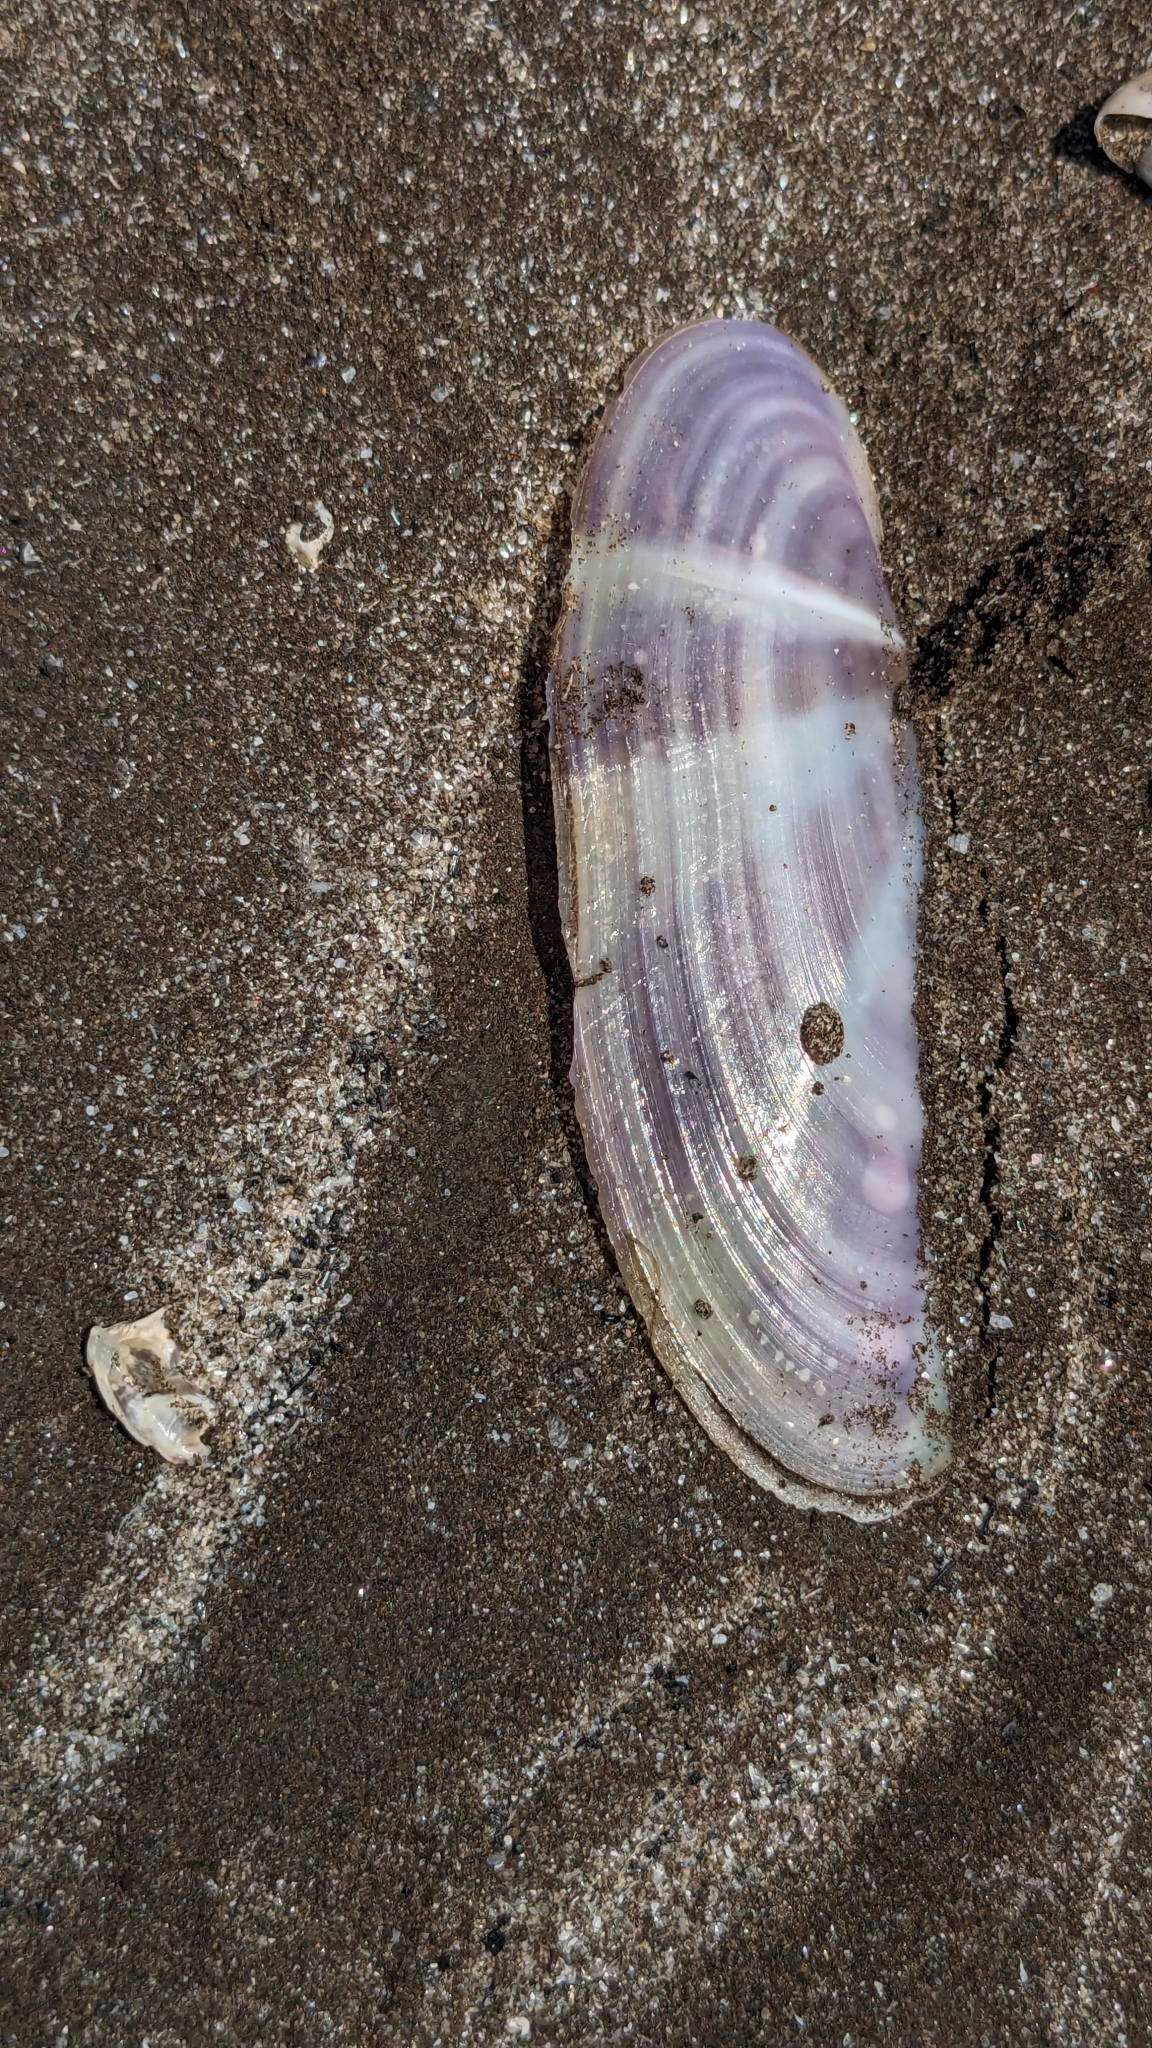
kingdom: Animalia
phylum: Mollusca
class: Bivalvia
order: Adapedonta
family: Pharidae
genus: Siliqua
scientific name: Siliqua radiata
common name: Sunset razor clam
